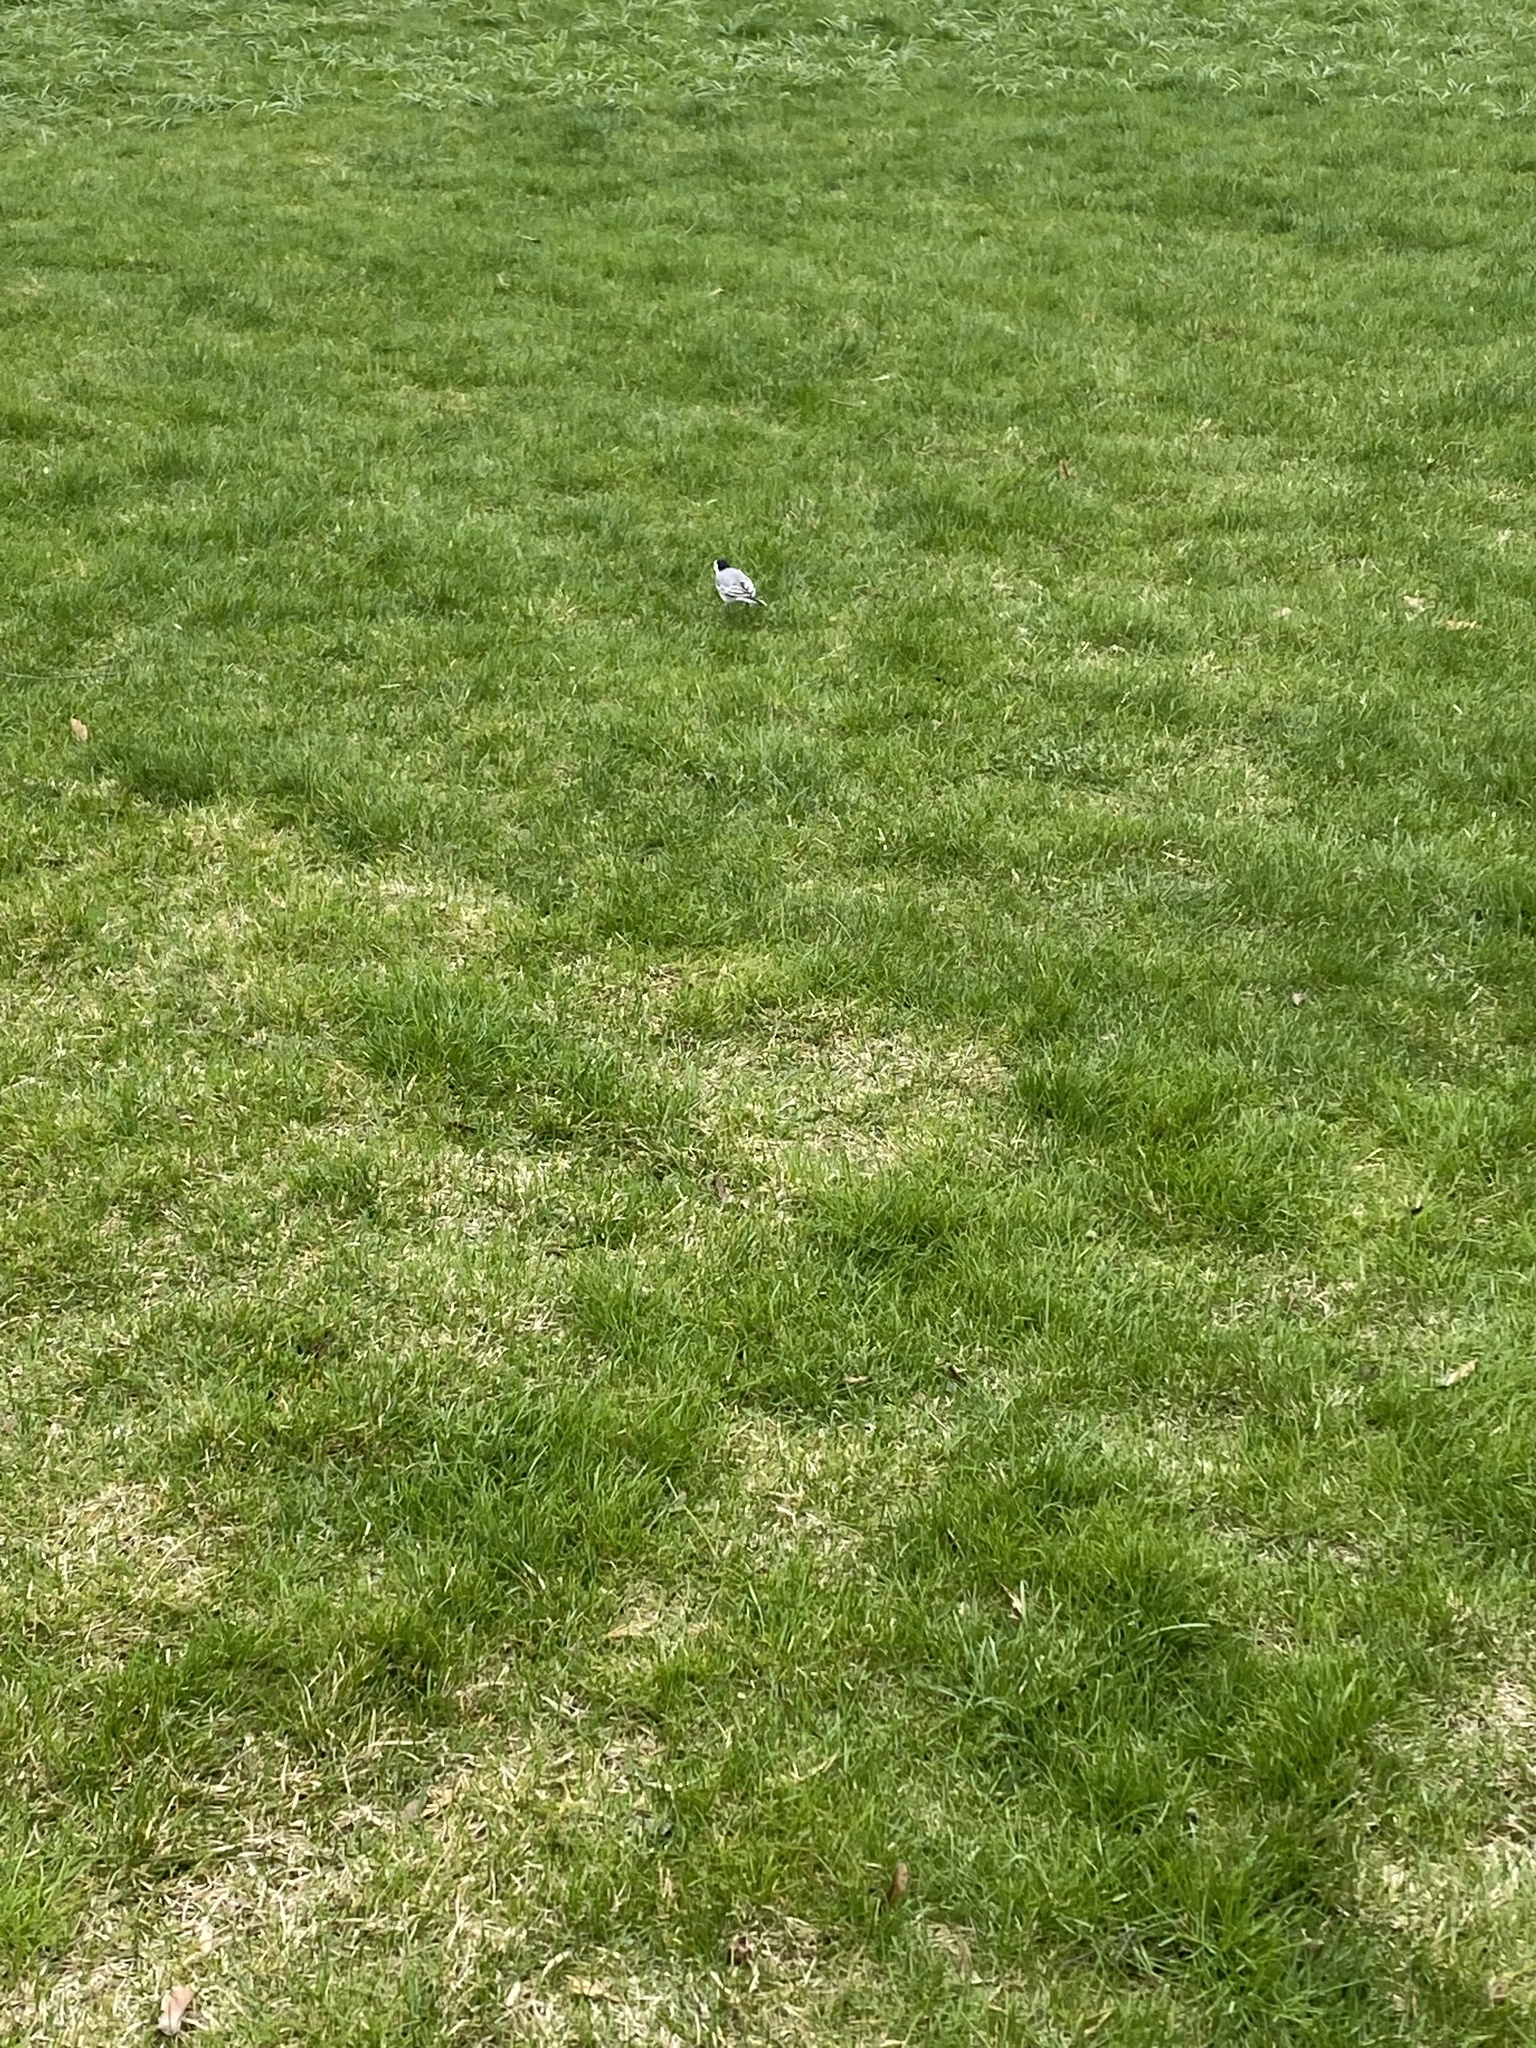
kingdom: Animalia
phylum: Chordata
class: Aves
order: Passeriformes
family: Motacillidae
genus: Motacilla
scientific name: Motacilla alba
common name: White wagtail
